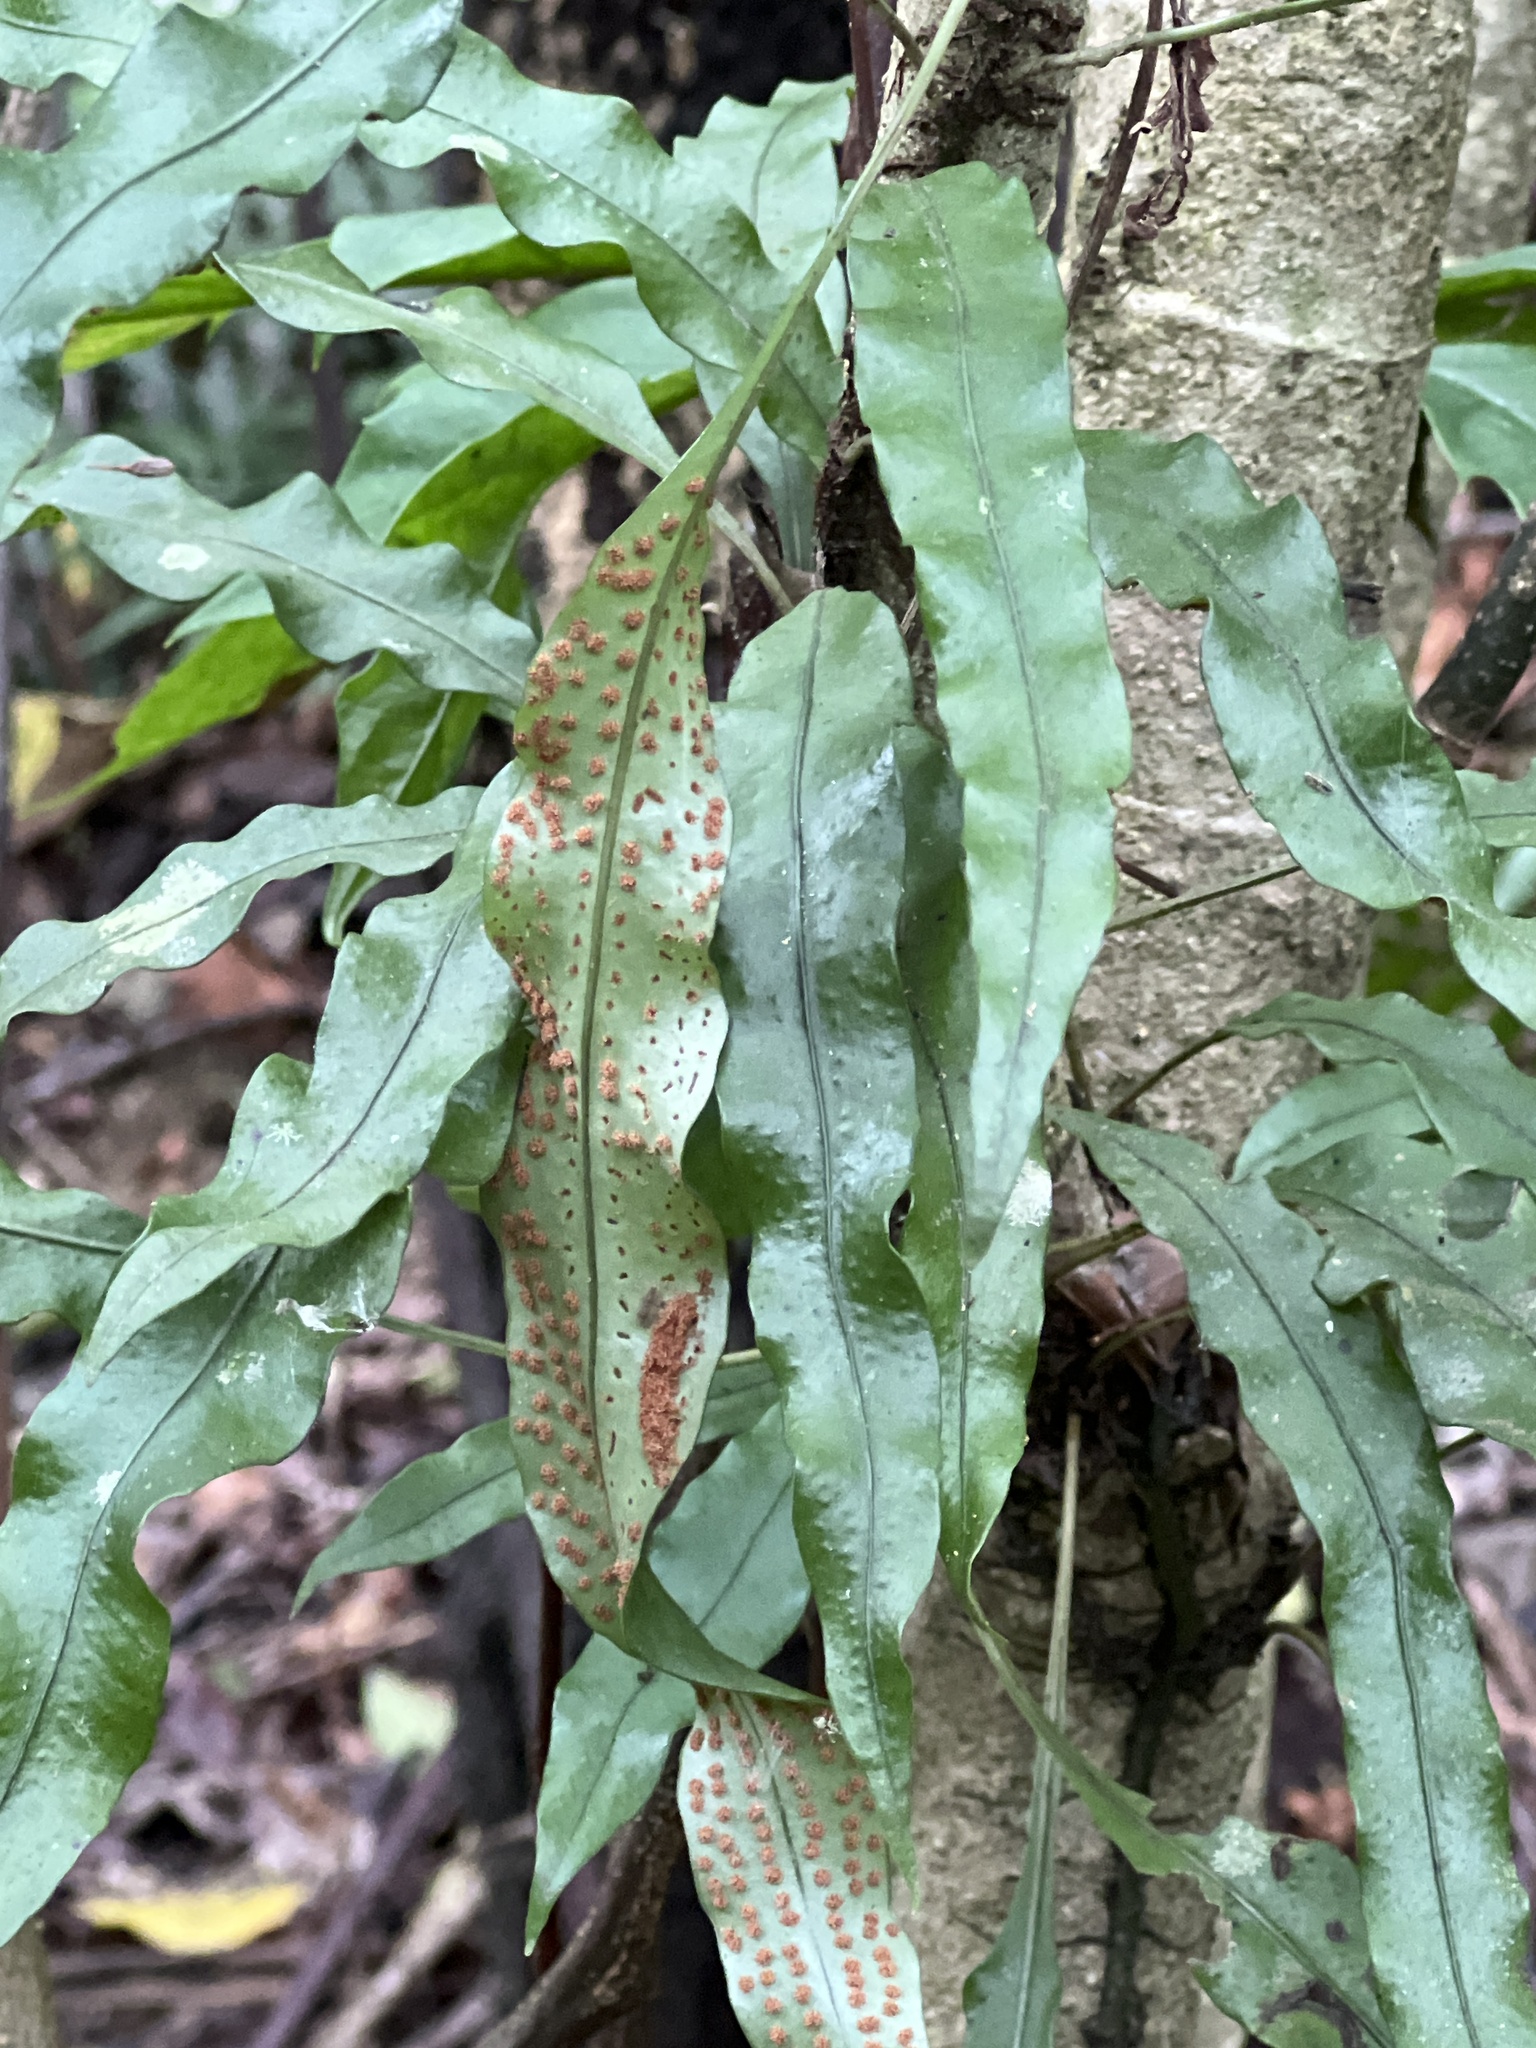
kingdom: Plantae
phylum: Tracheophyta
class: Polypodiopsida
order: Polypodiales
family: Polypodiaceae
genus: Lepisorus
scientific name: Lepisorus superficialis
